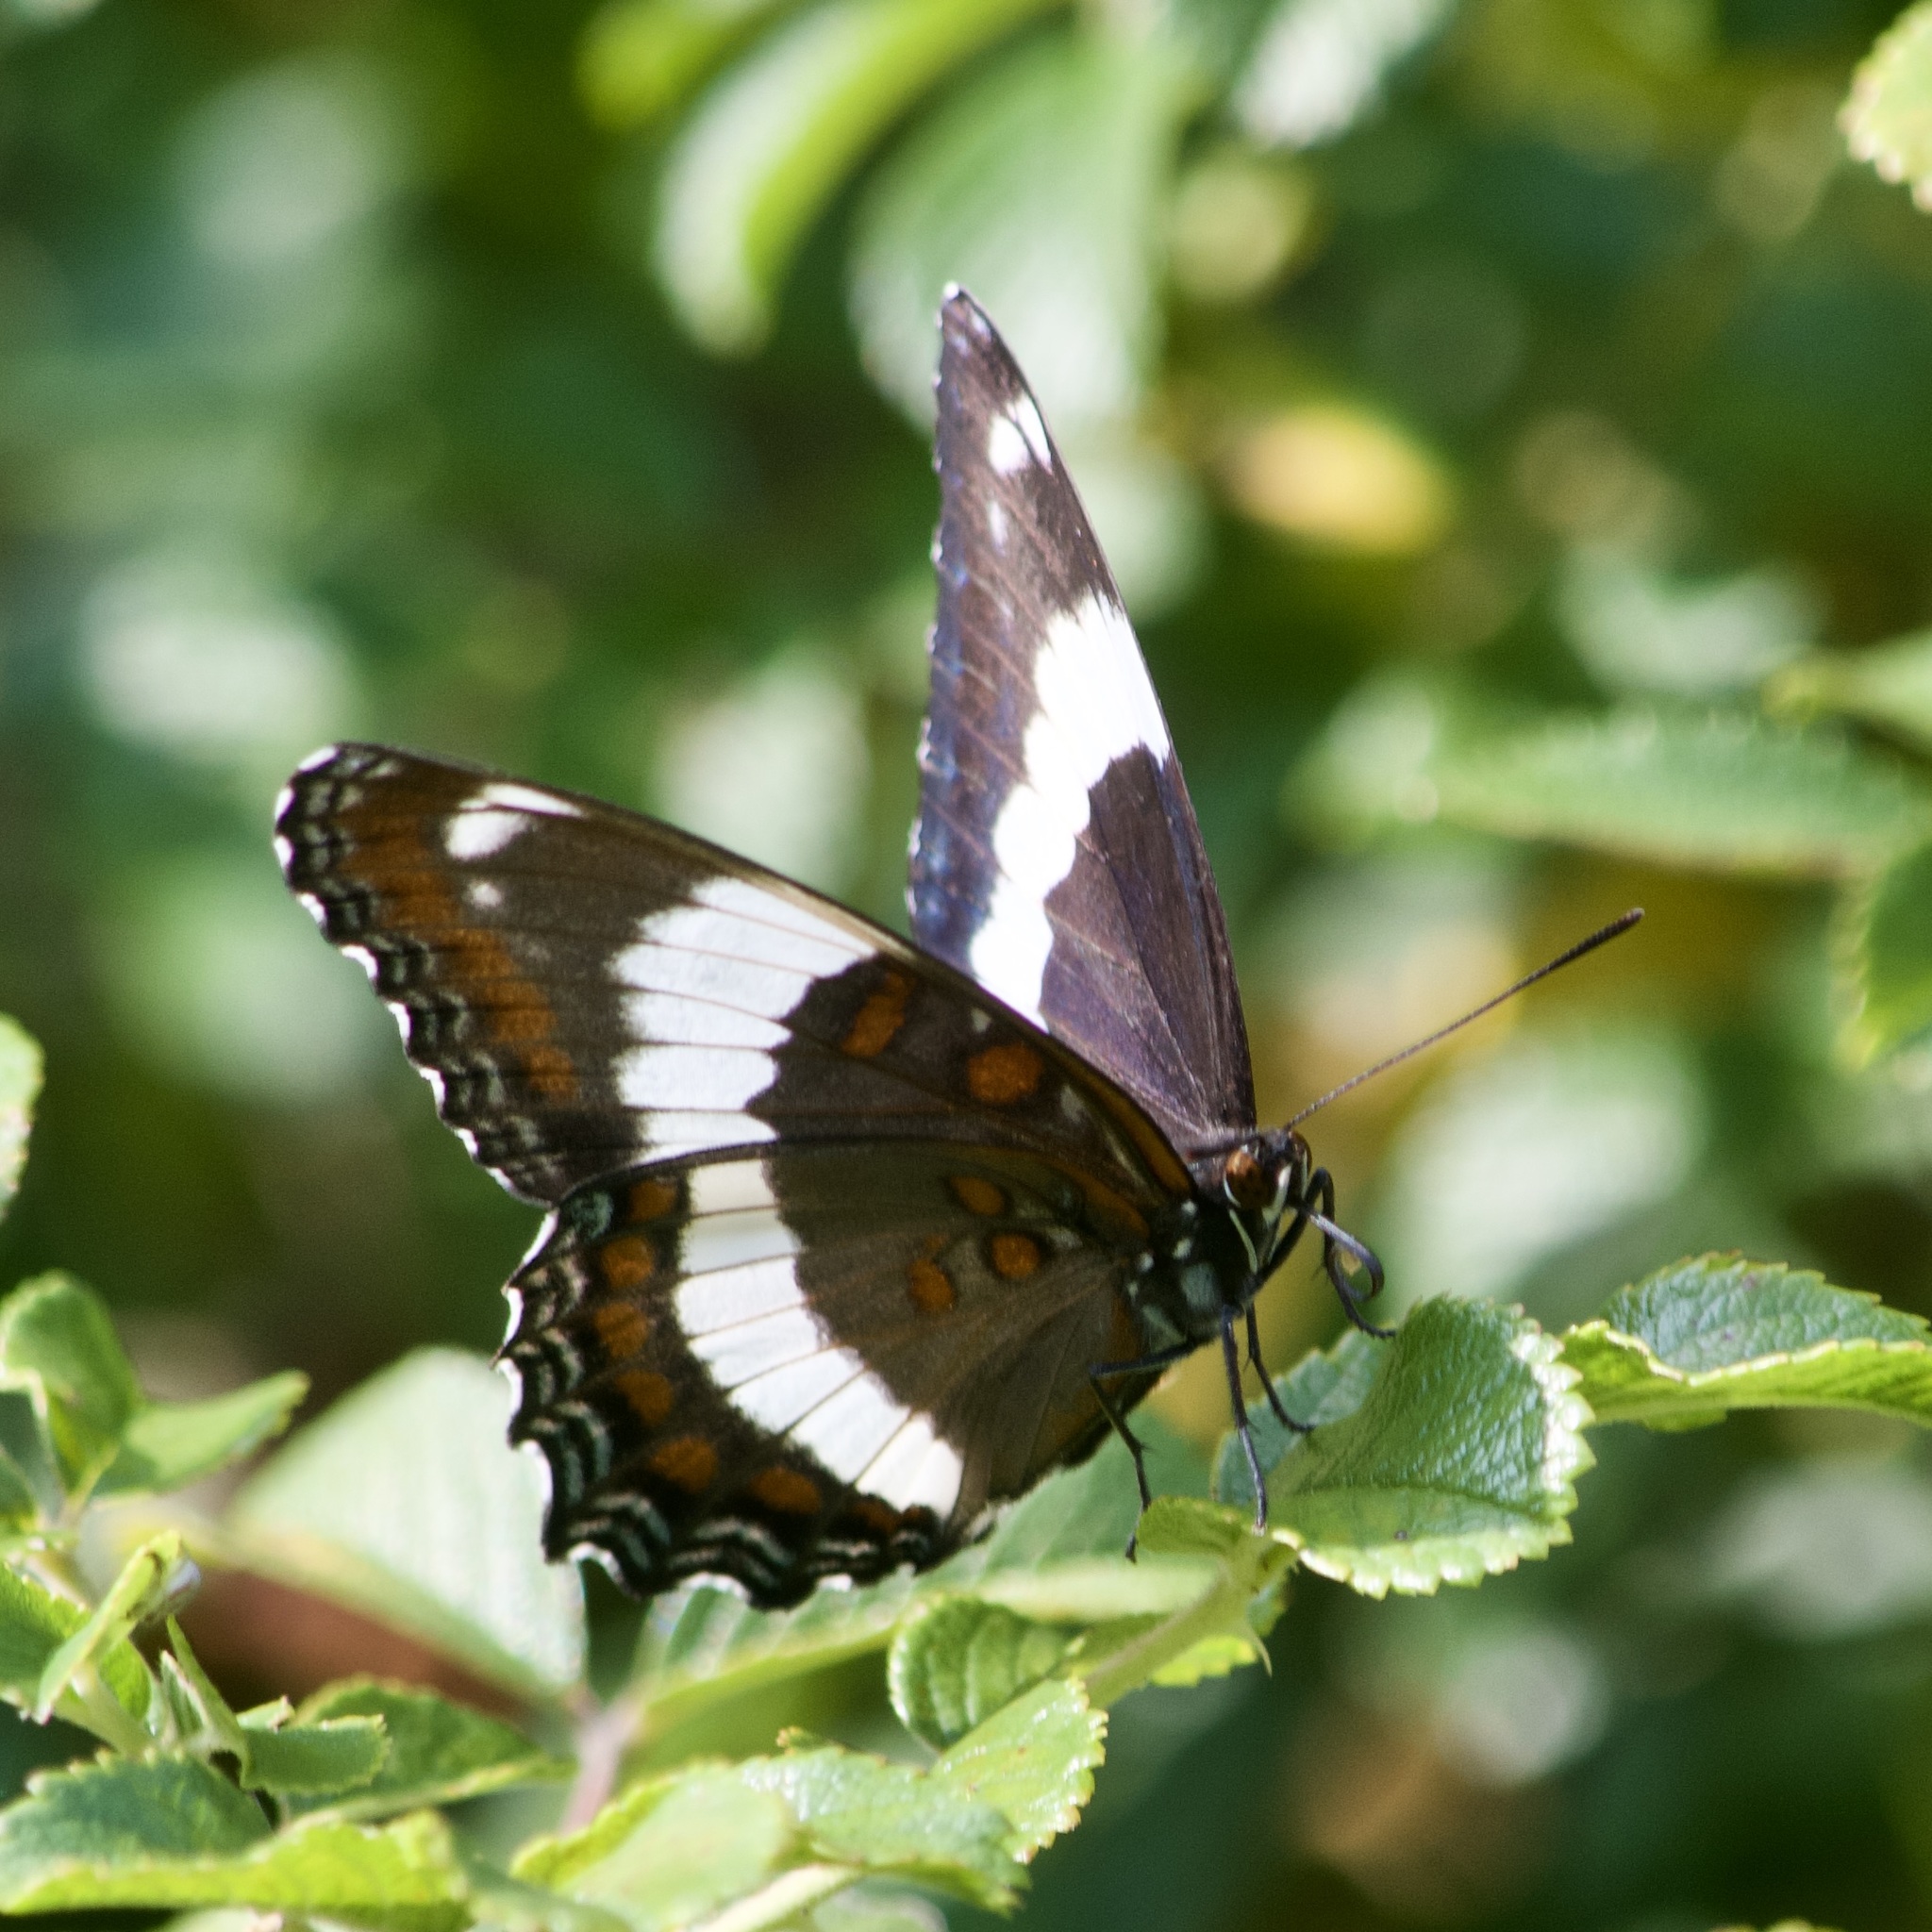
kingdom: Animalia
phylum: Arthropoda
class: Insecta
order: Lepidoptera
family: Nymphalidae
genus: Limenitis
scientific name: Limenitis arthemis
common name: Red-spotted admiral
